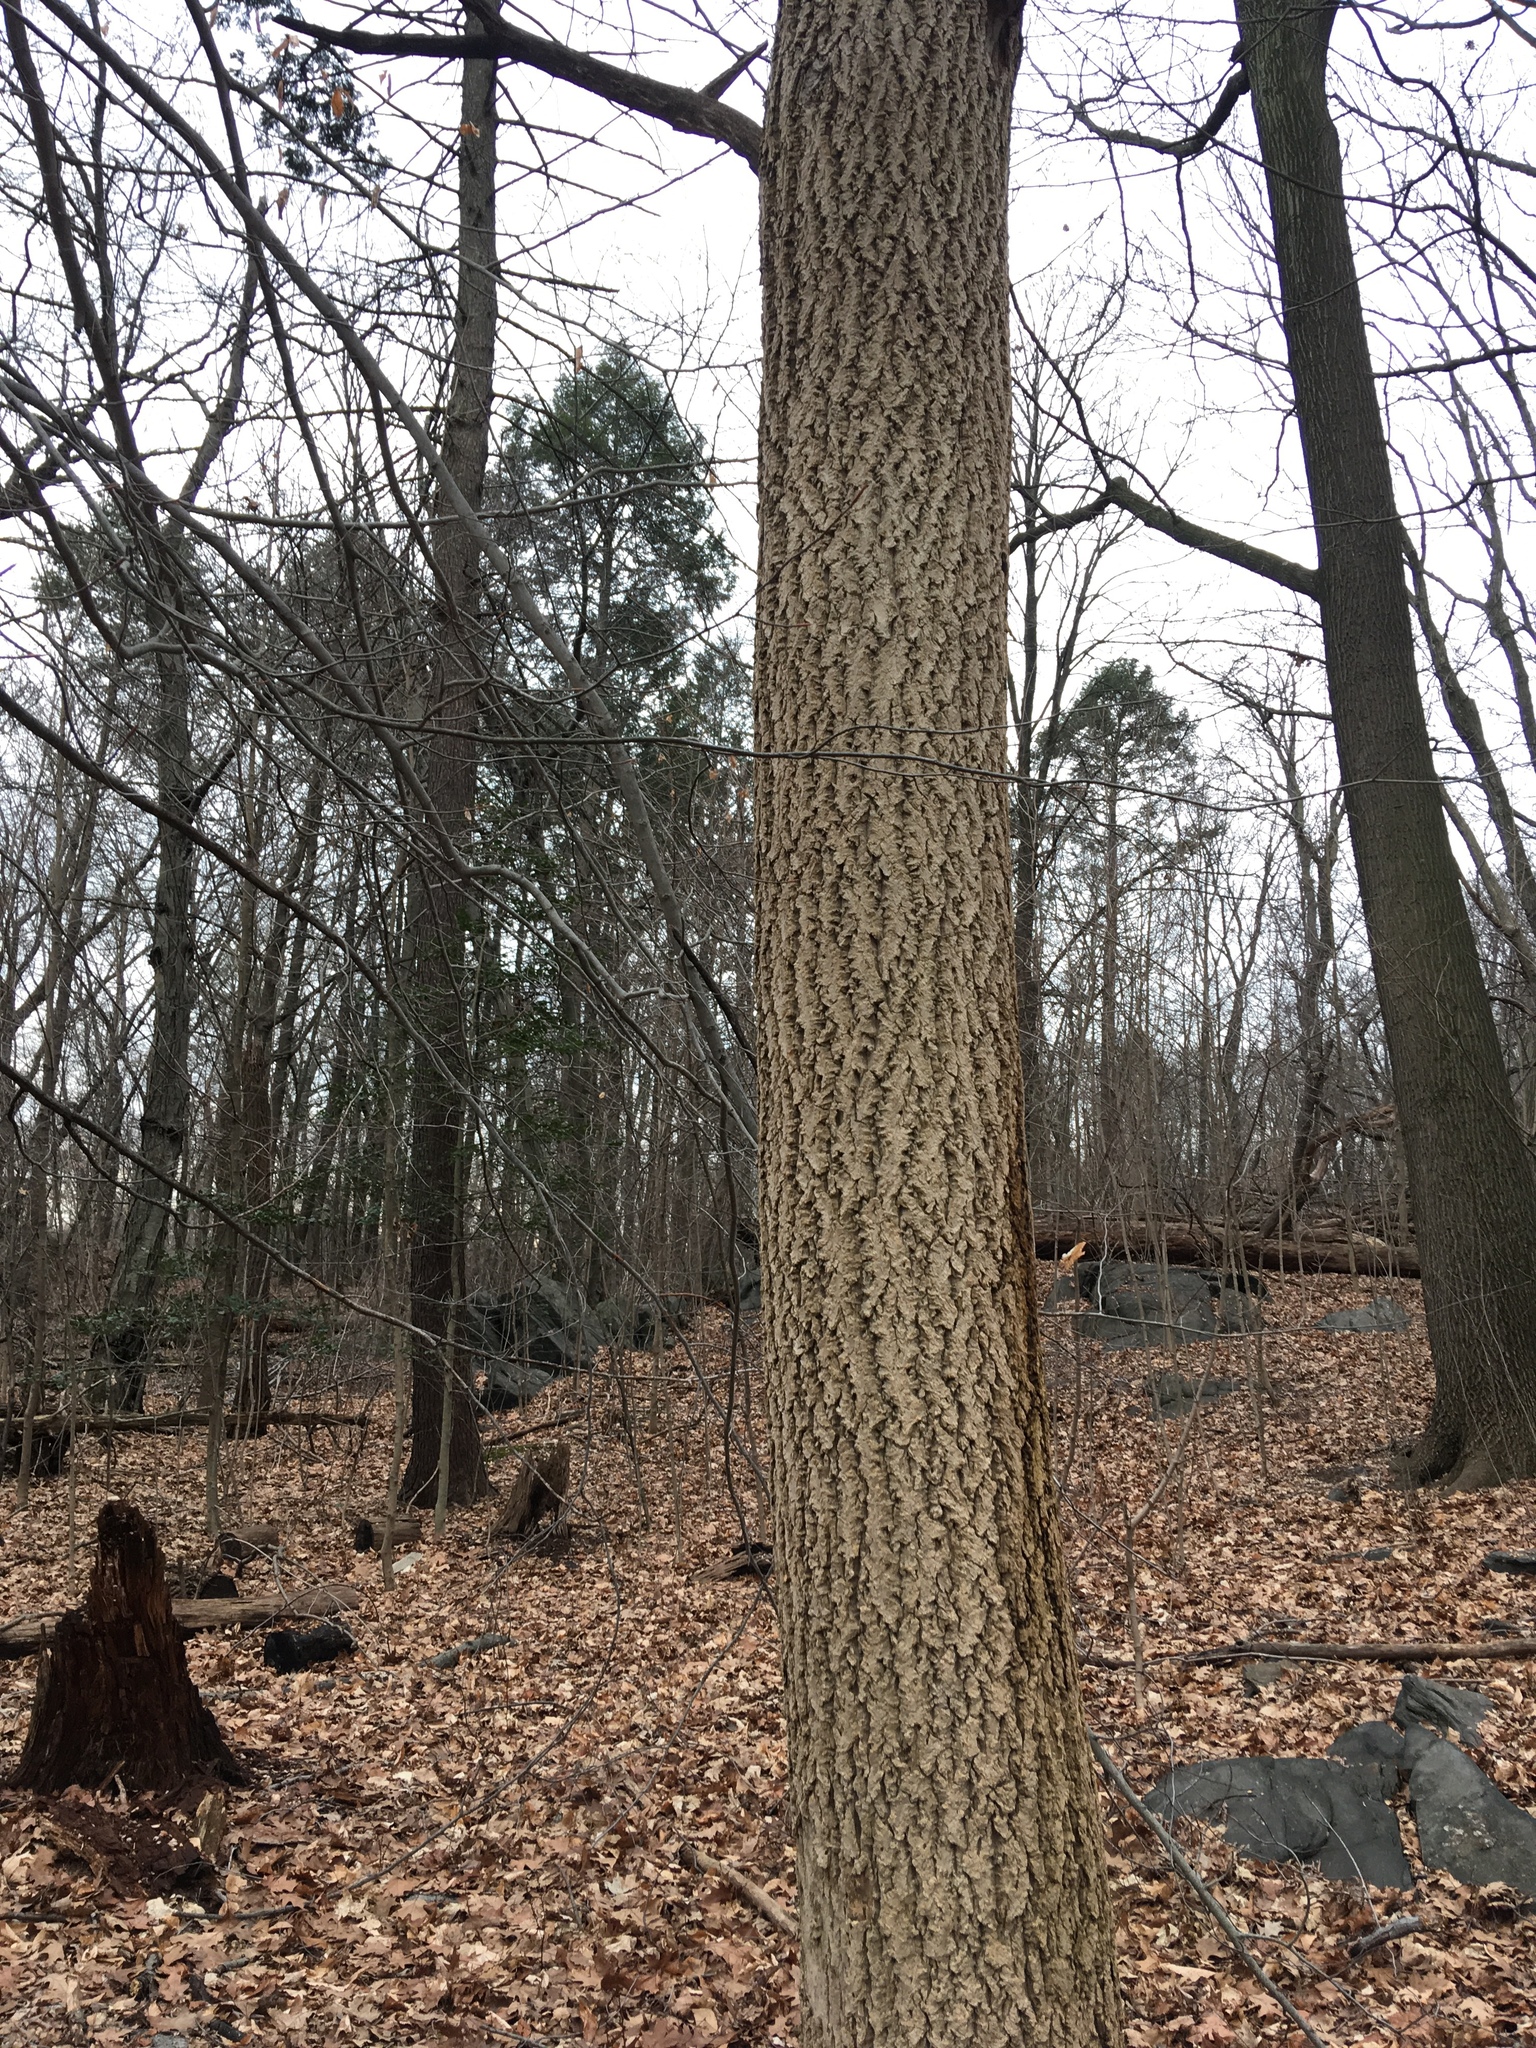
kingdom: Plantae
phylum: Tracheophyta
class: Magnoliopsida
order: Sapindales
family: Rutaceae
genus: Phellodendron
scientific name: Phellodendron amurense
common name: Amur corktree
